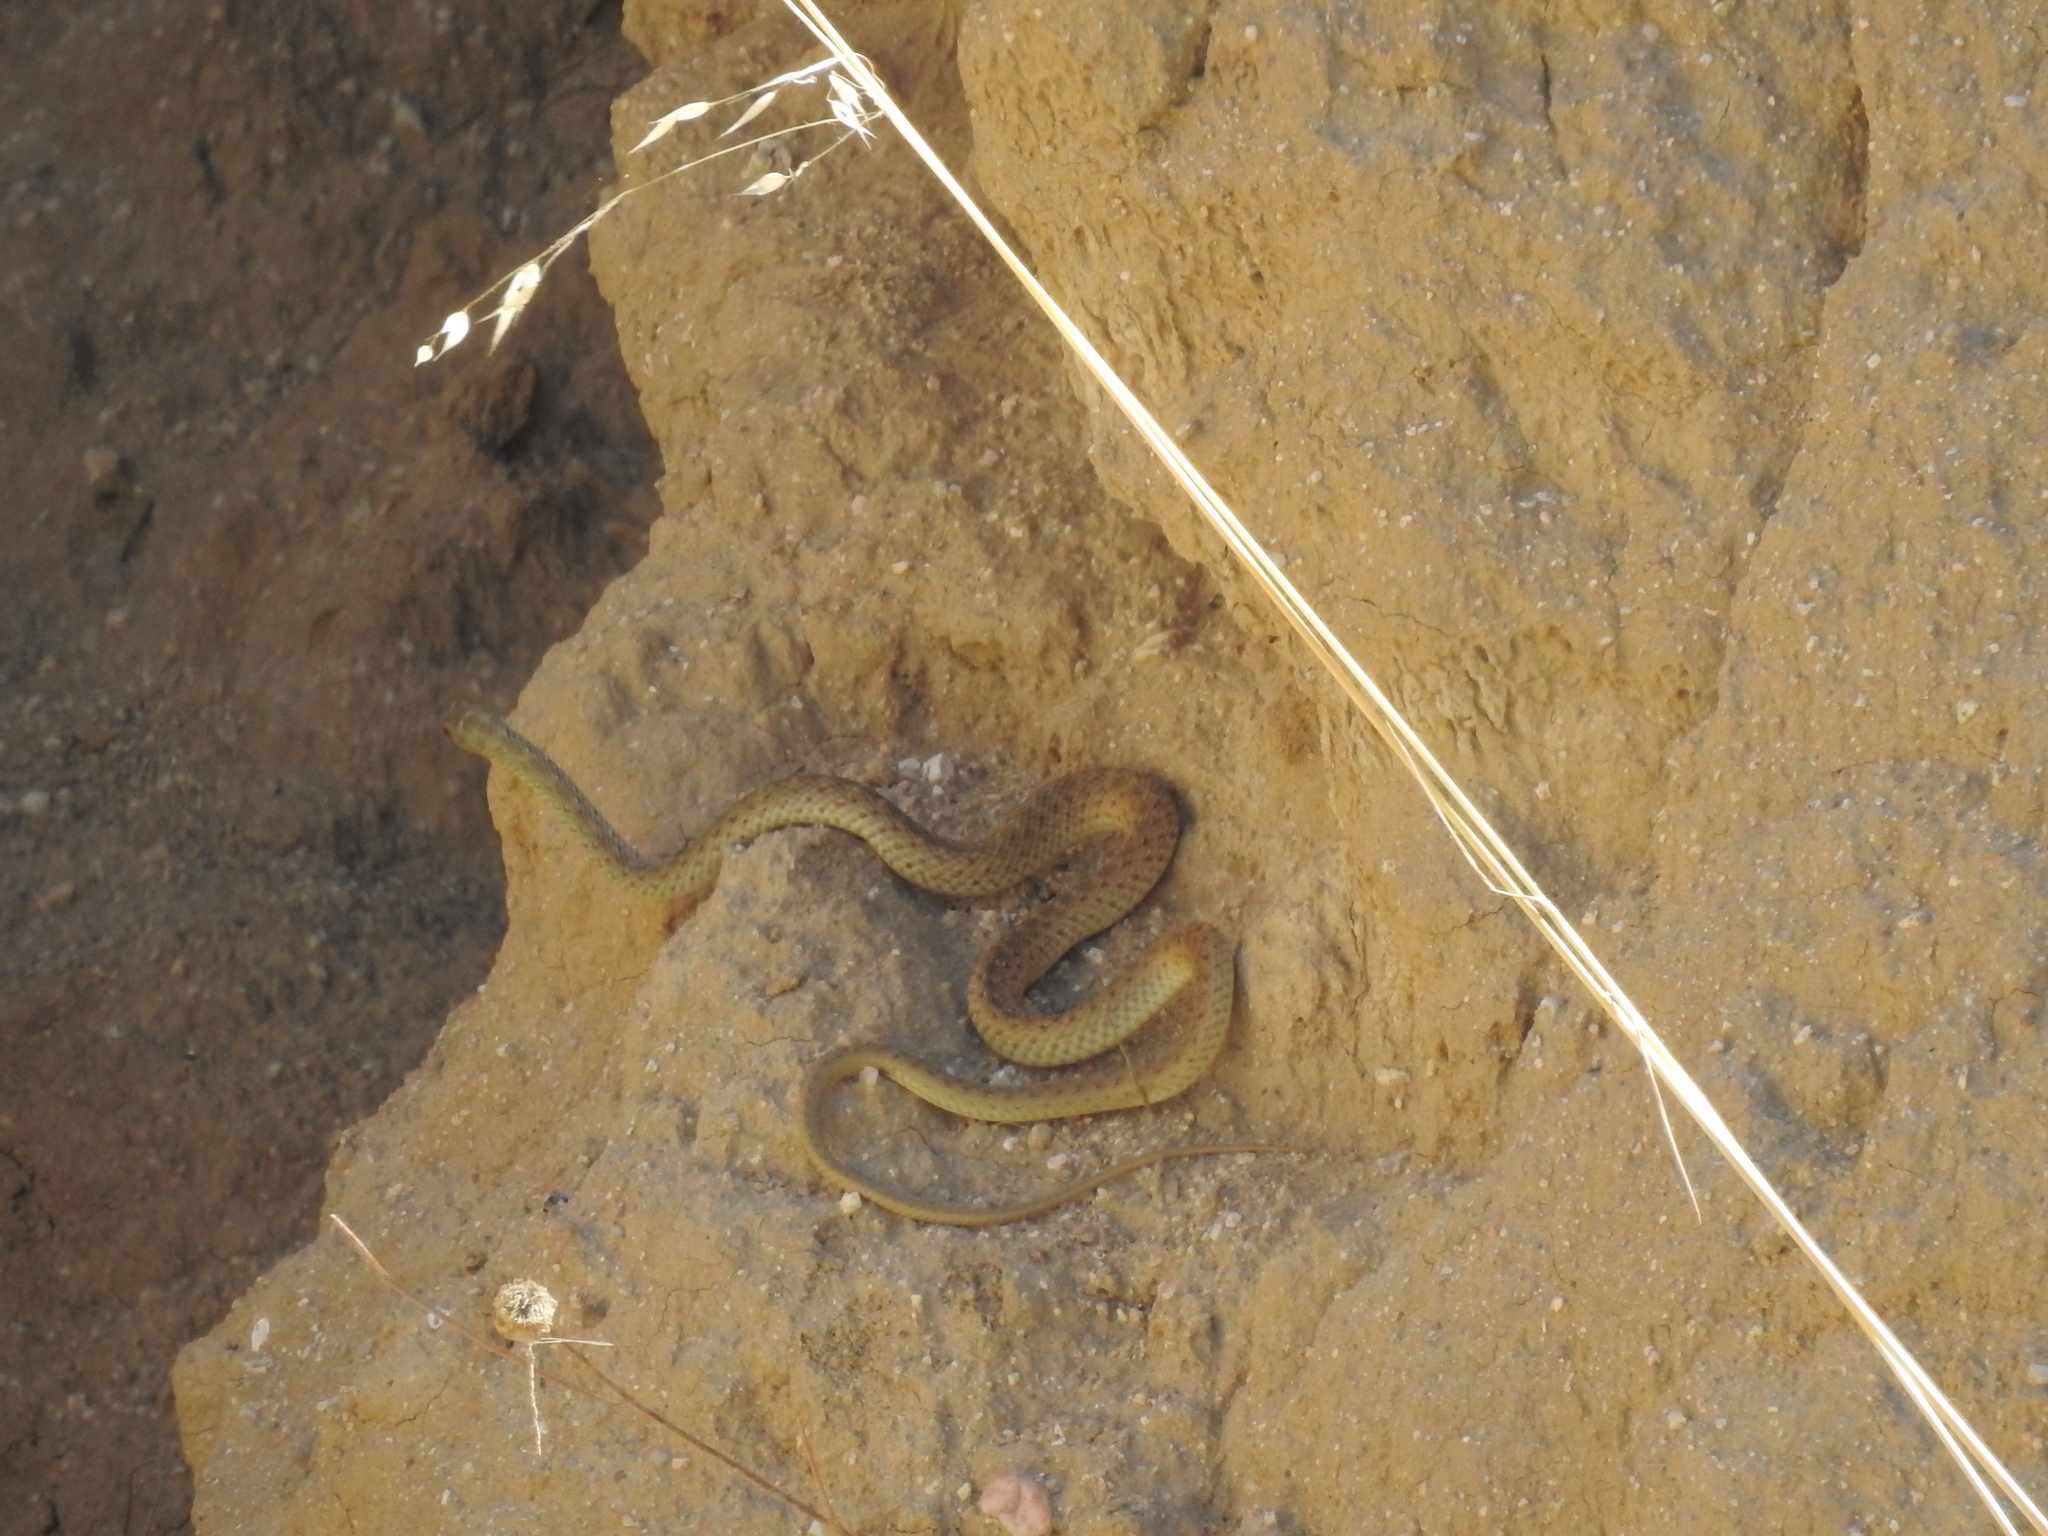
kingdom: Animalia
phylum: Chordata
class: Squamata
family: Psammophiidae
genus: Malpolon
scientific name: Malpolon monspessulanus
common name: Montpellier snake
